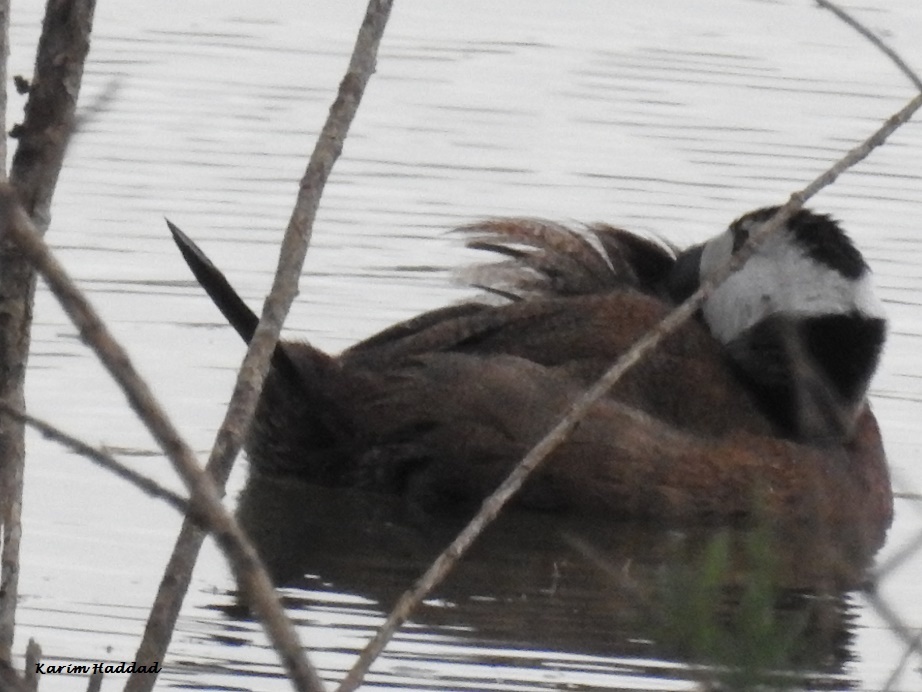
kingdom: Animalia
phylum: Chordata
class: Aves
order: Anseriformes
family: Anatidae
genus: Oxyura
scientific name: Oxyura leucocephala
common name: White-headed duck
